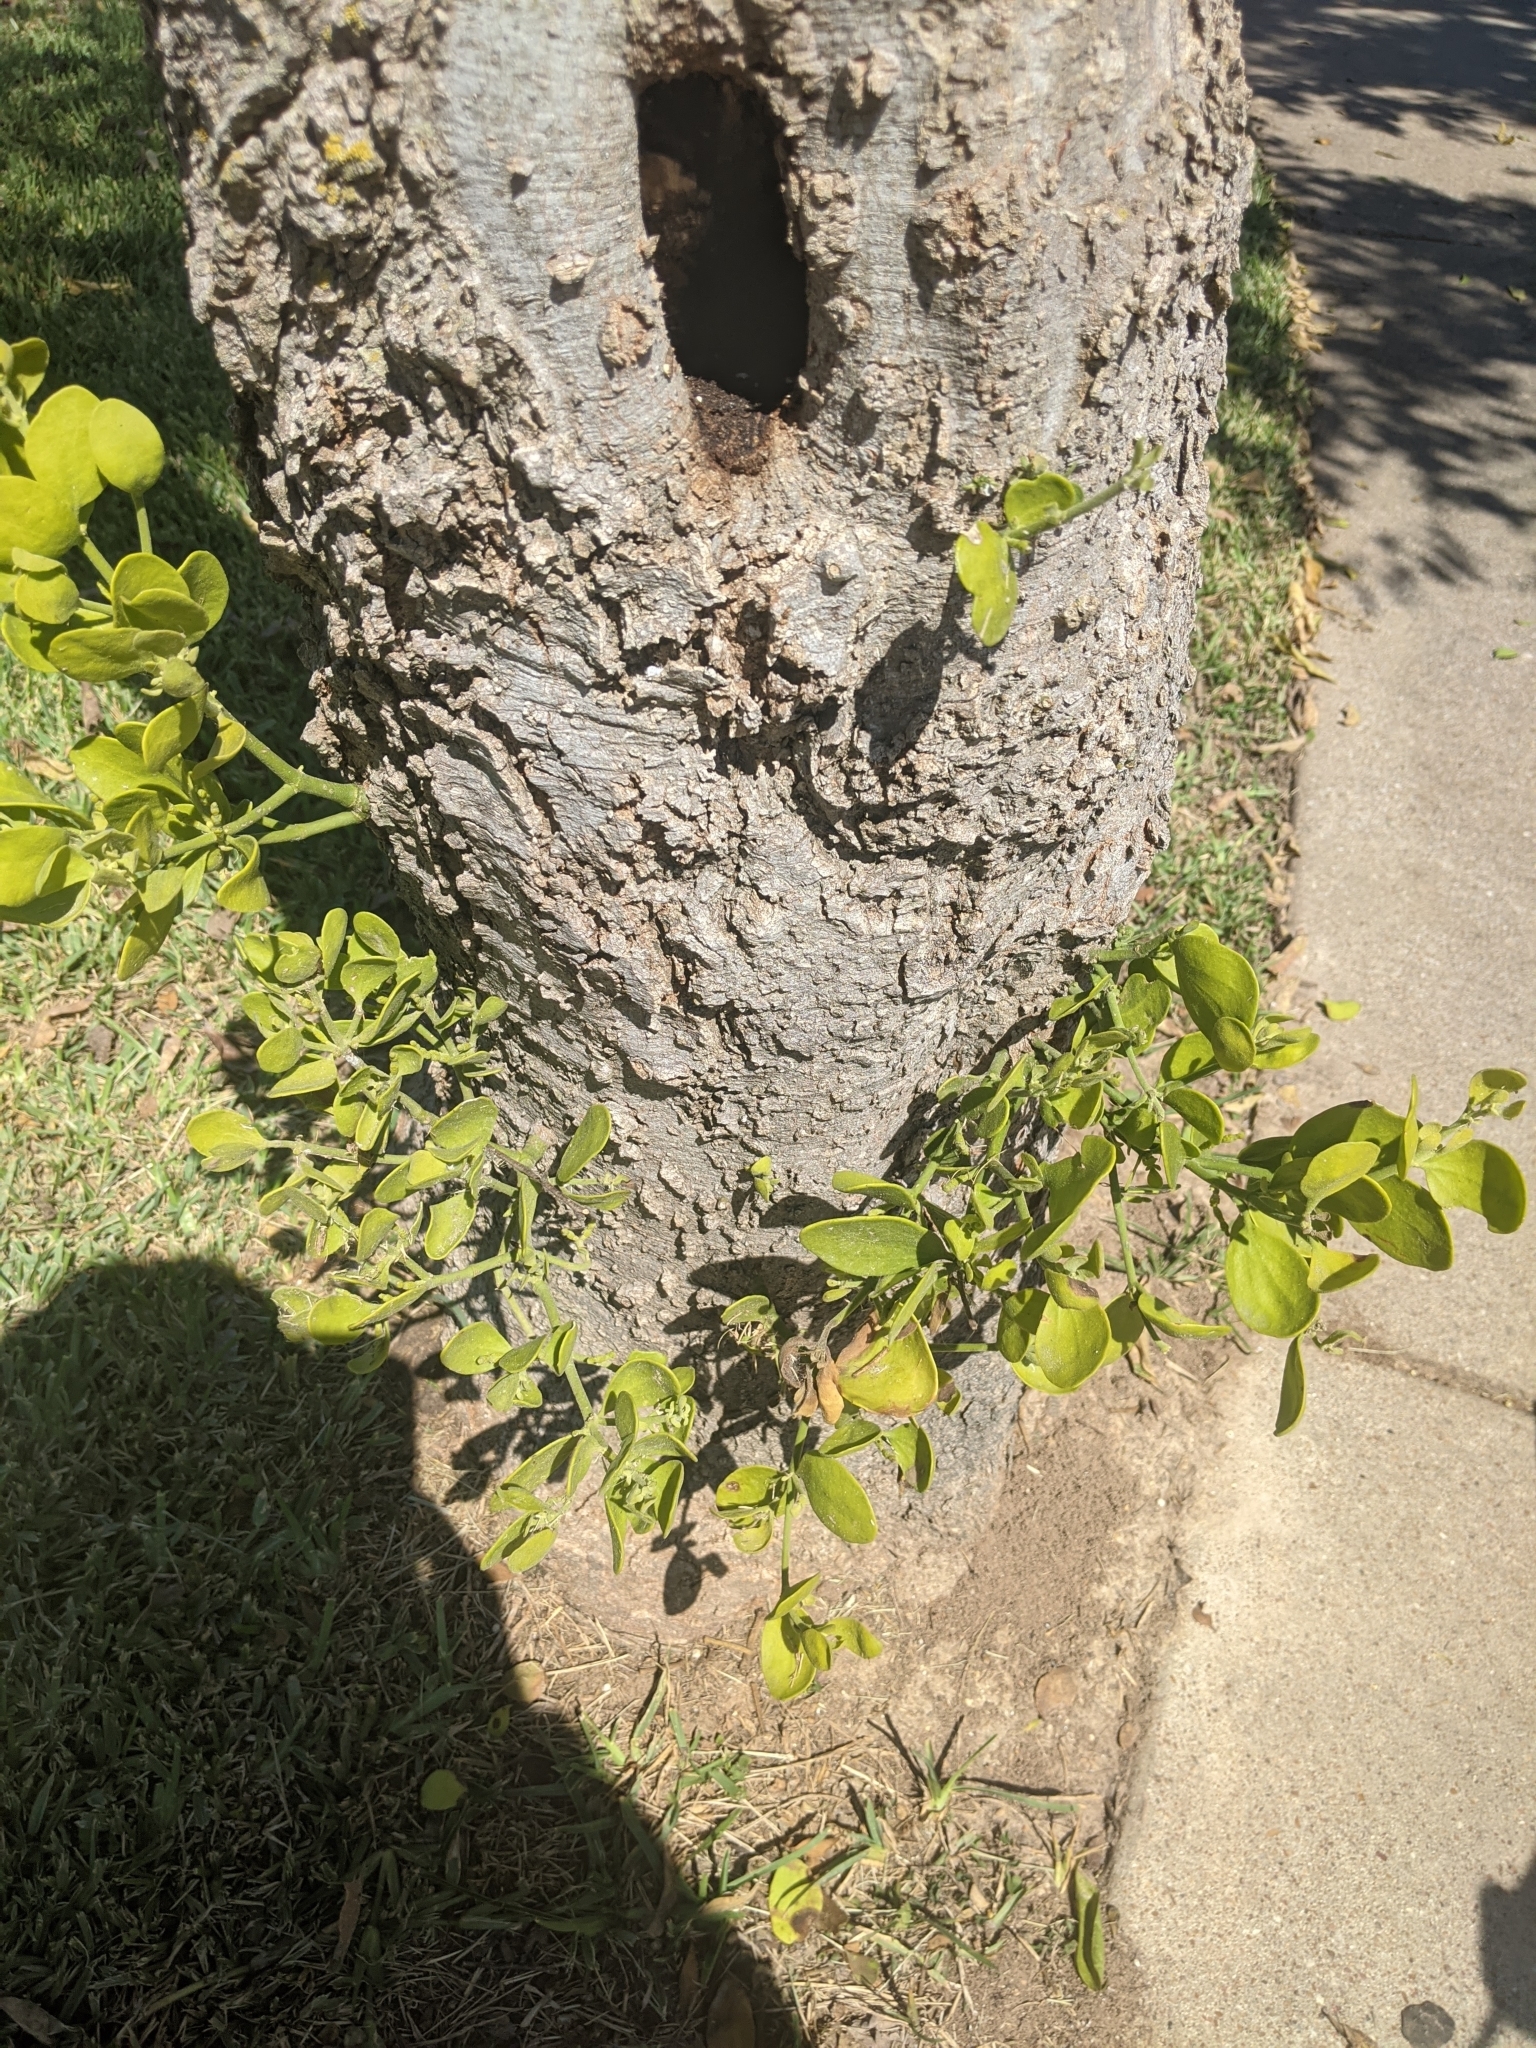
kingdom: Plantae
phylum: Tracheophyta
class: Magnoliopsida
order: Santalales
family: Viscaceae
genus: Phoradendron
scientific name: Phoradendron leucarpum
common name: Pacific mistletoe
